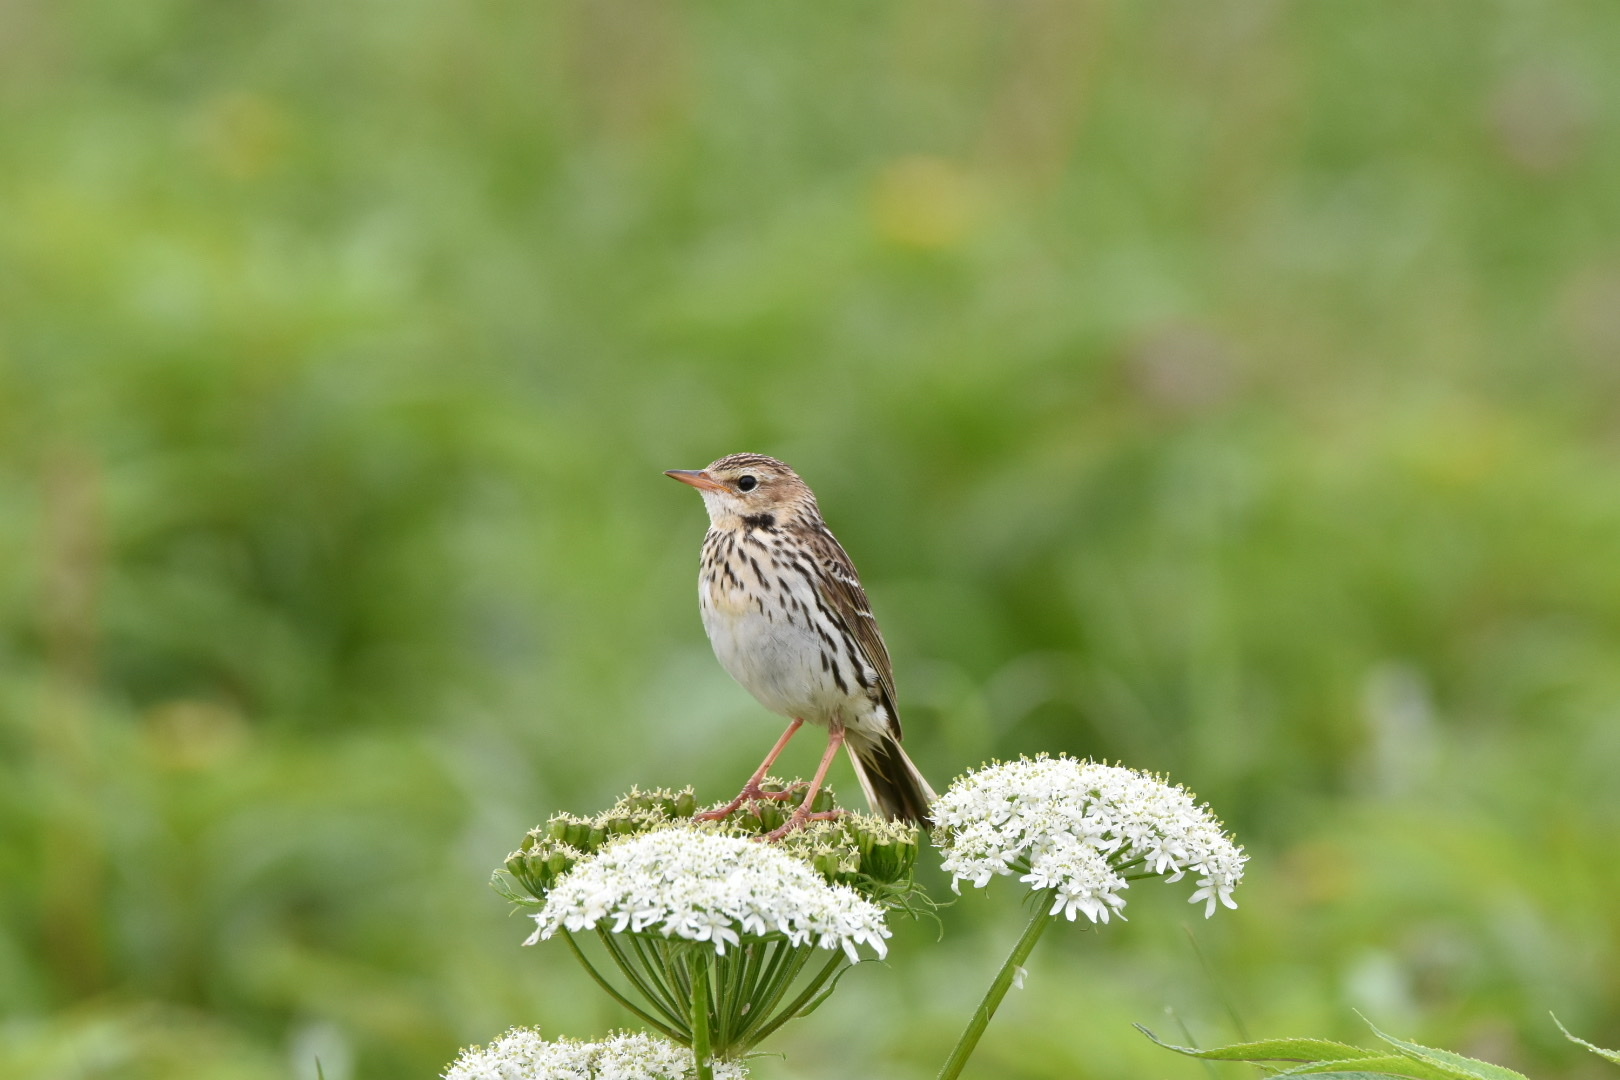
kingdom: Animalia
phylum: Chordata
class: Aves
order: Passeriformes
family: Motacillidae
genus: Anthus
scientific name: Anthus gustavi
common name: Pechora pipit
